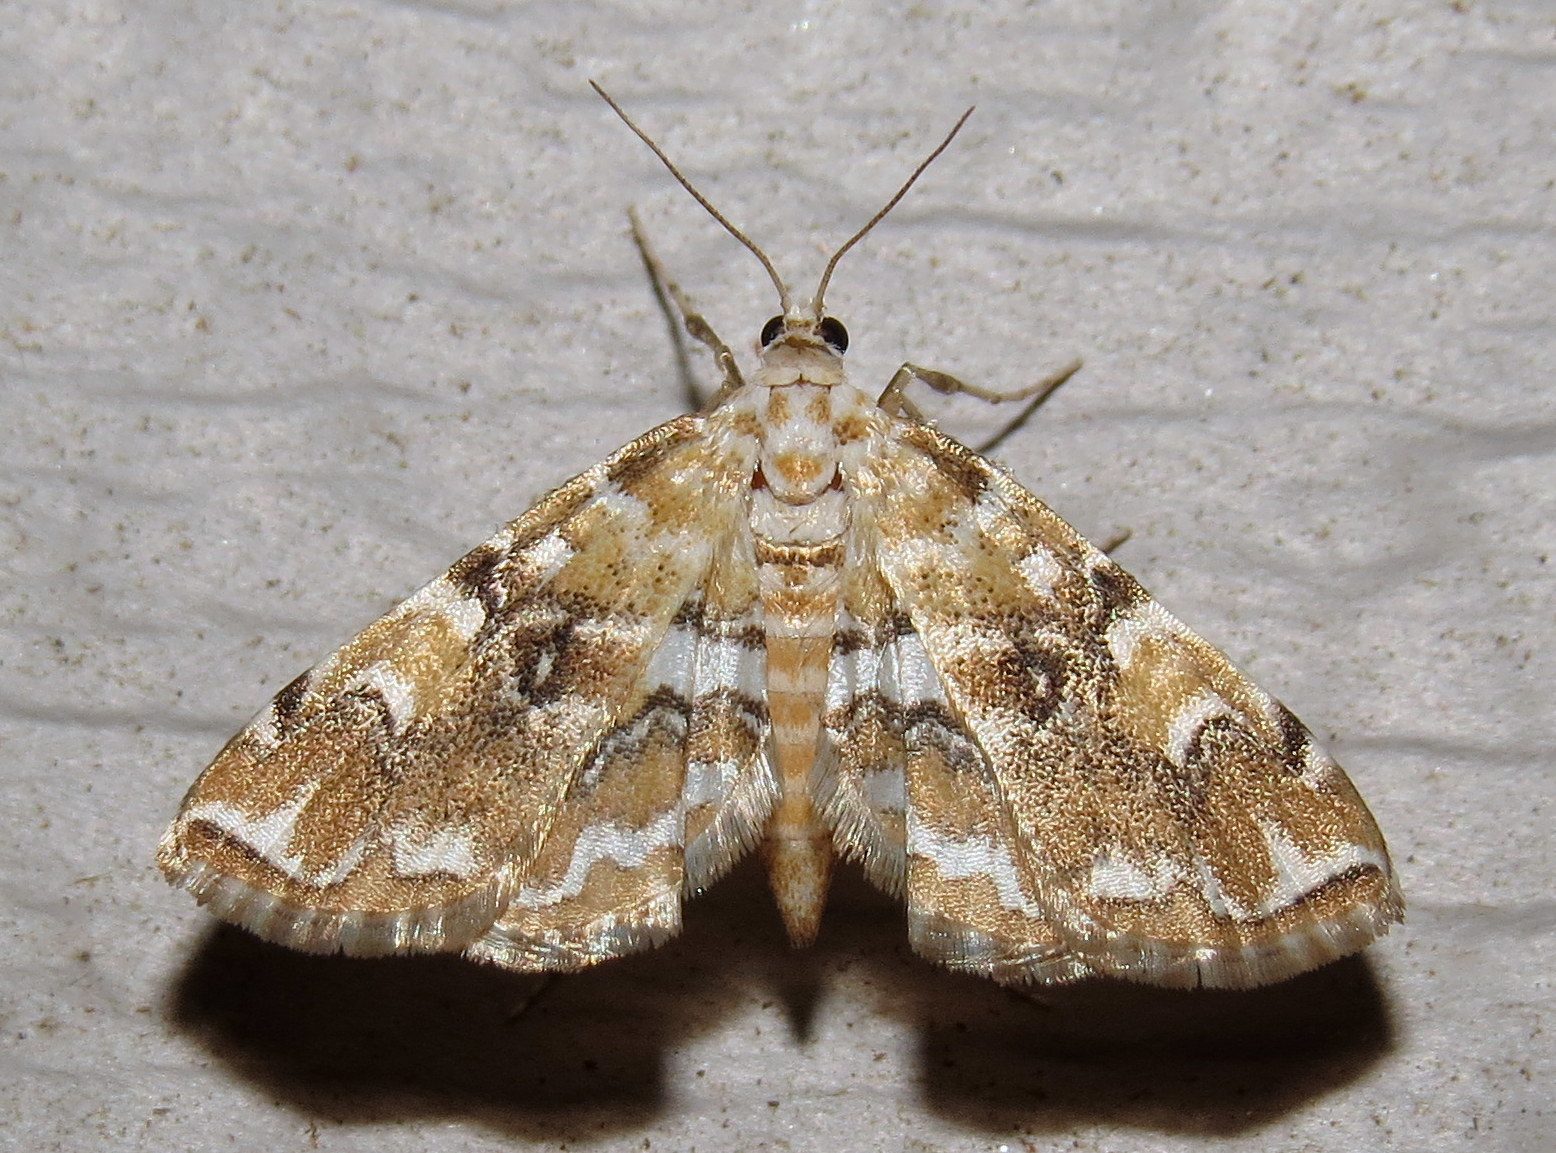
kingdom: Animalia
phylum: Arthropoda
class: Insecta
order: Lepidoptera
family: Crambidae
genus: Elophila
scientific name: Elophila gyralis
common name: Waterlily borer moth
